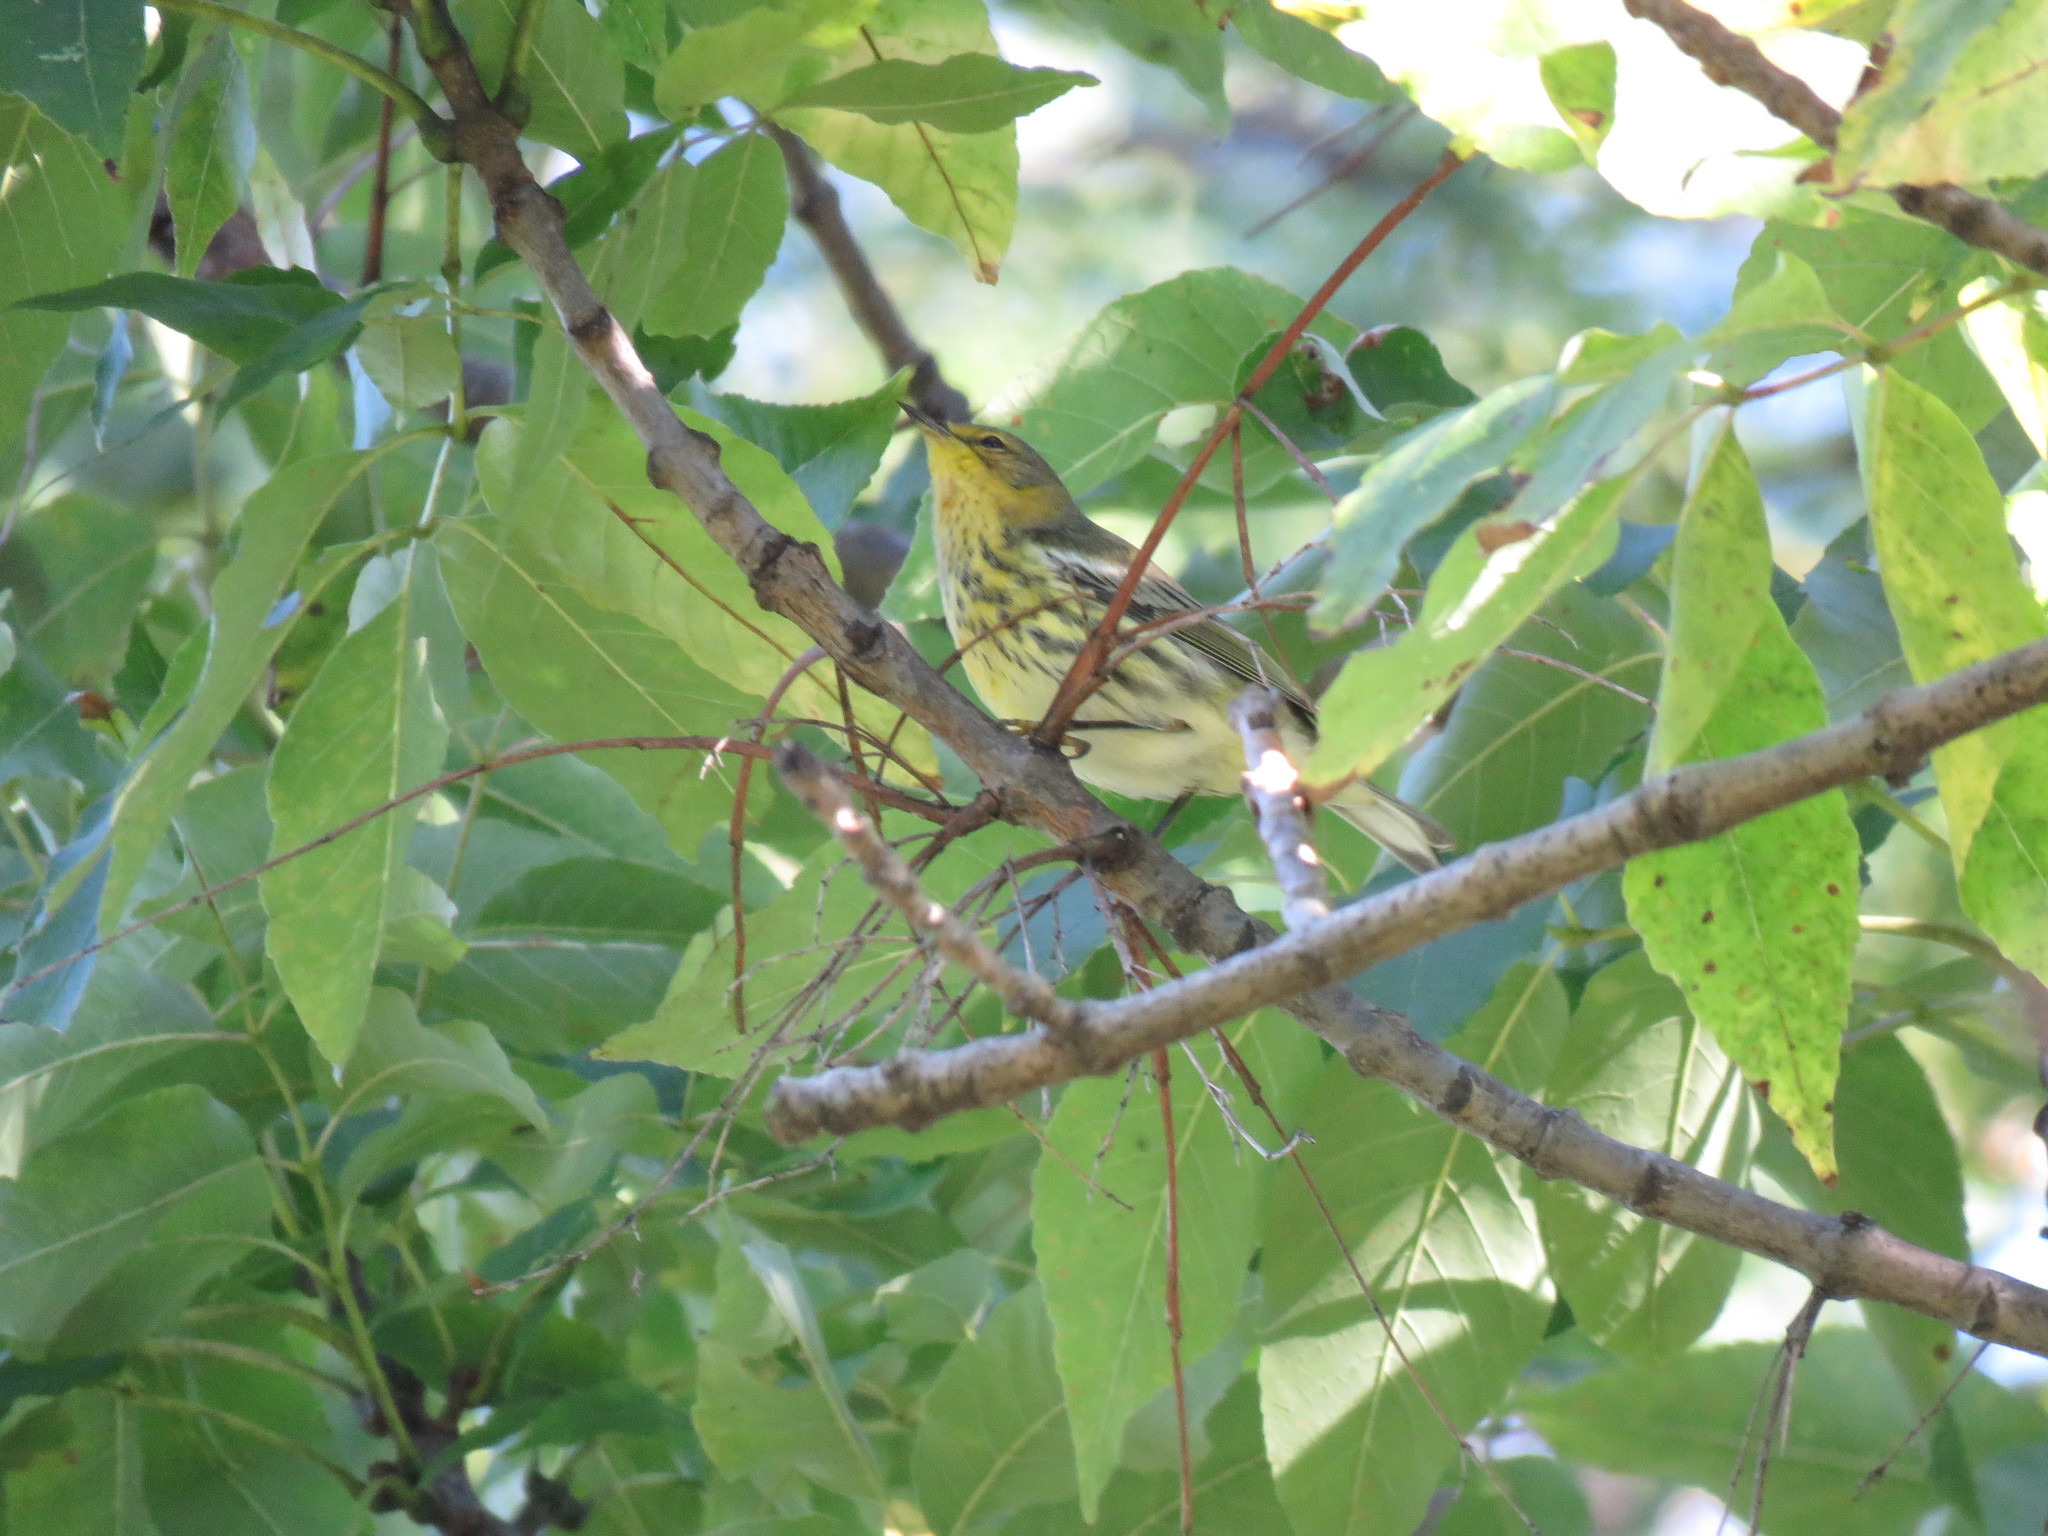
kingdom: Animalia
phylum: Chordata
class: Aves
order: Passeriformes
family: Parulidae
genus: Setophaga
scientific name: Setophaga tigrina
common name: Cape may warbler
